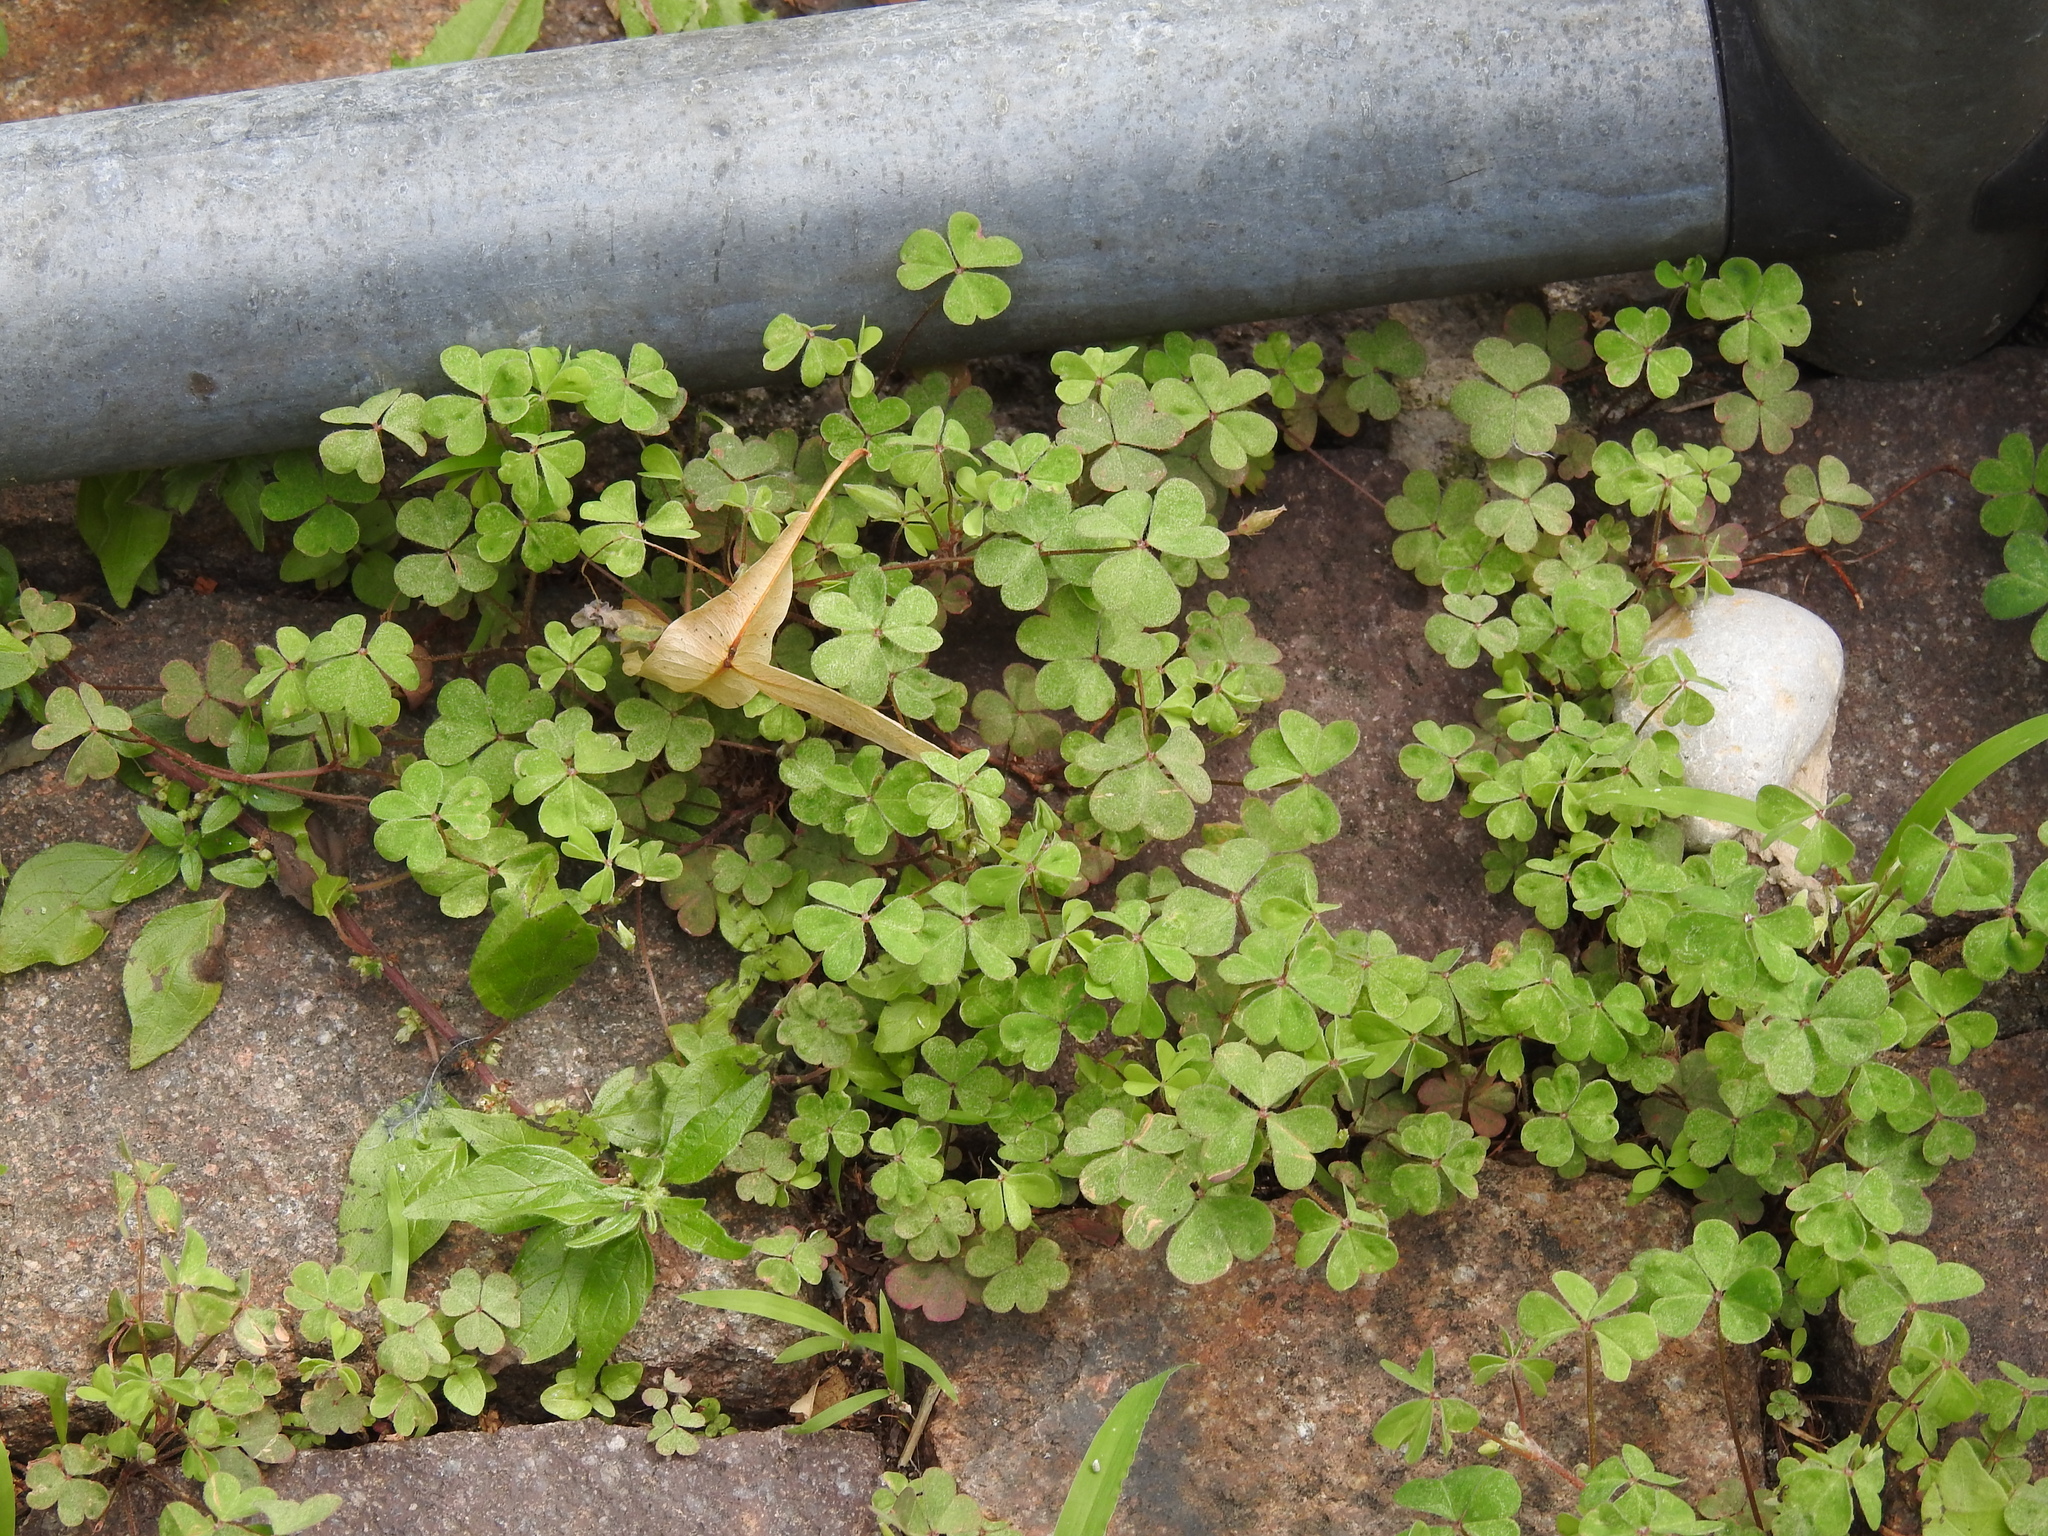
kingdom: Plantae
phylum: Tracheophyta
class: Magnoliopsida
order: Oxalidales
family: Oxalidaceae
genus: Oxalis
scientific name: Oxalis corniculata
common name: Procumbent yellow-sorrel
